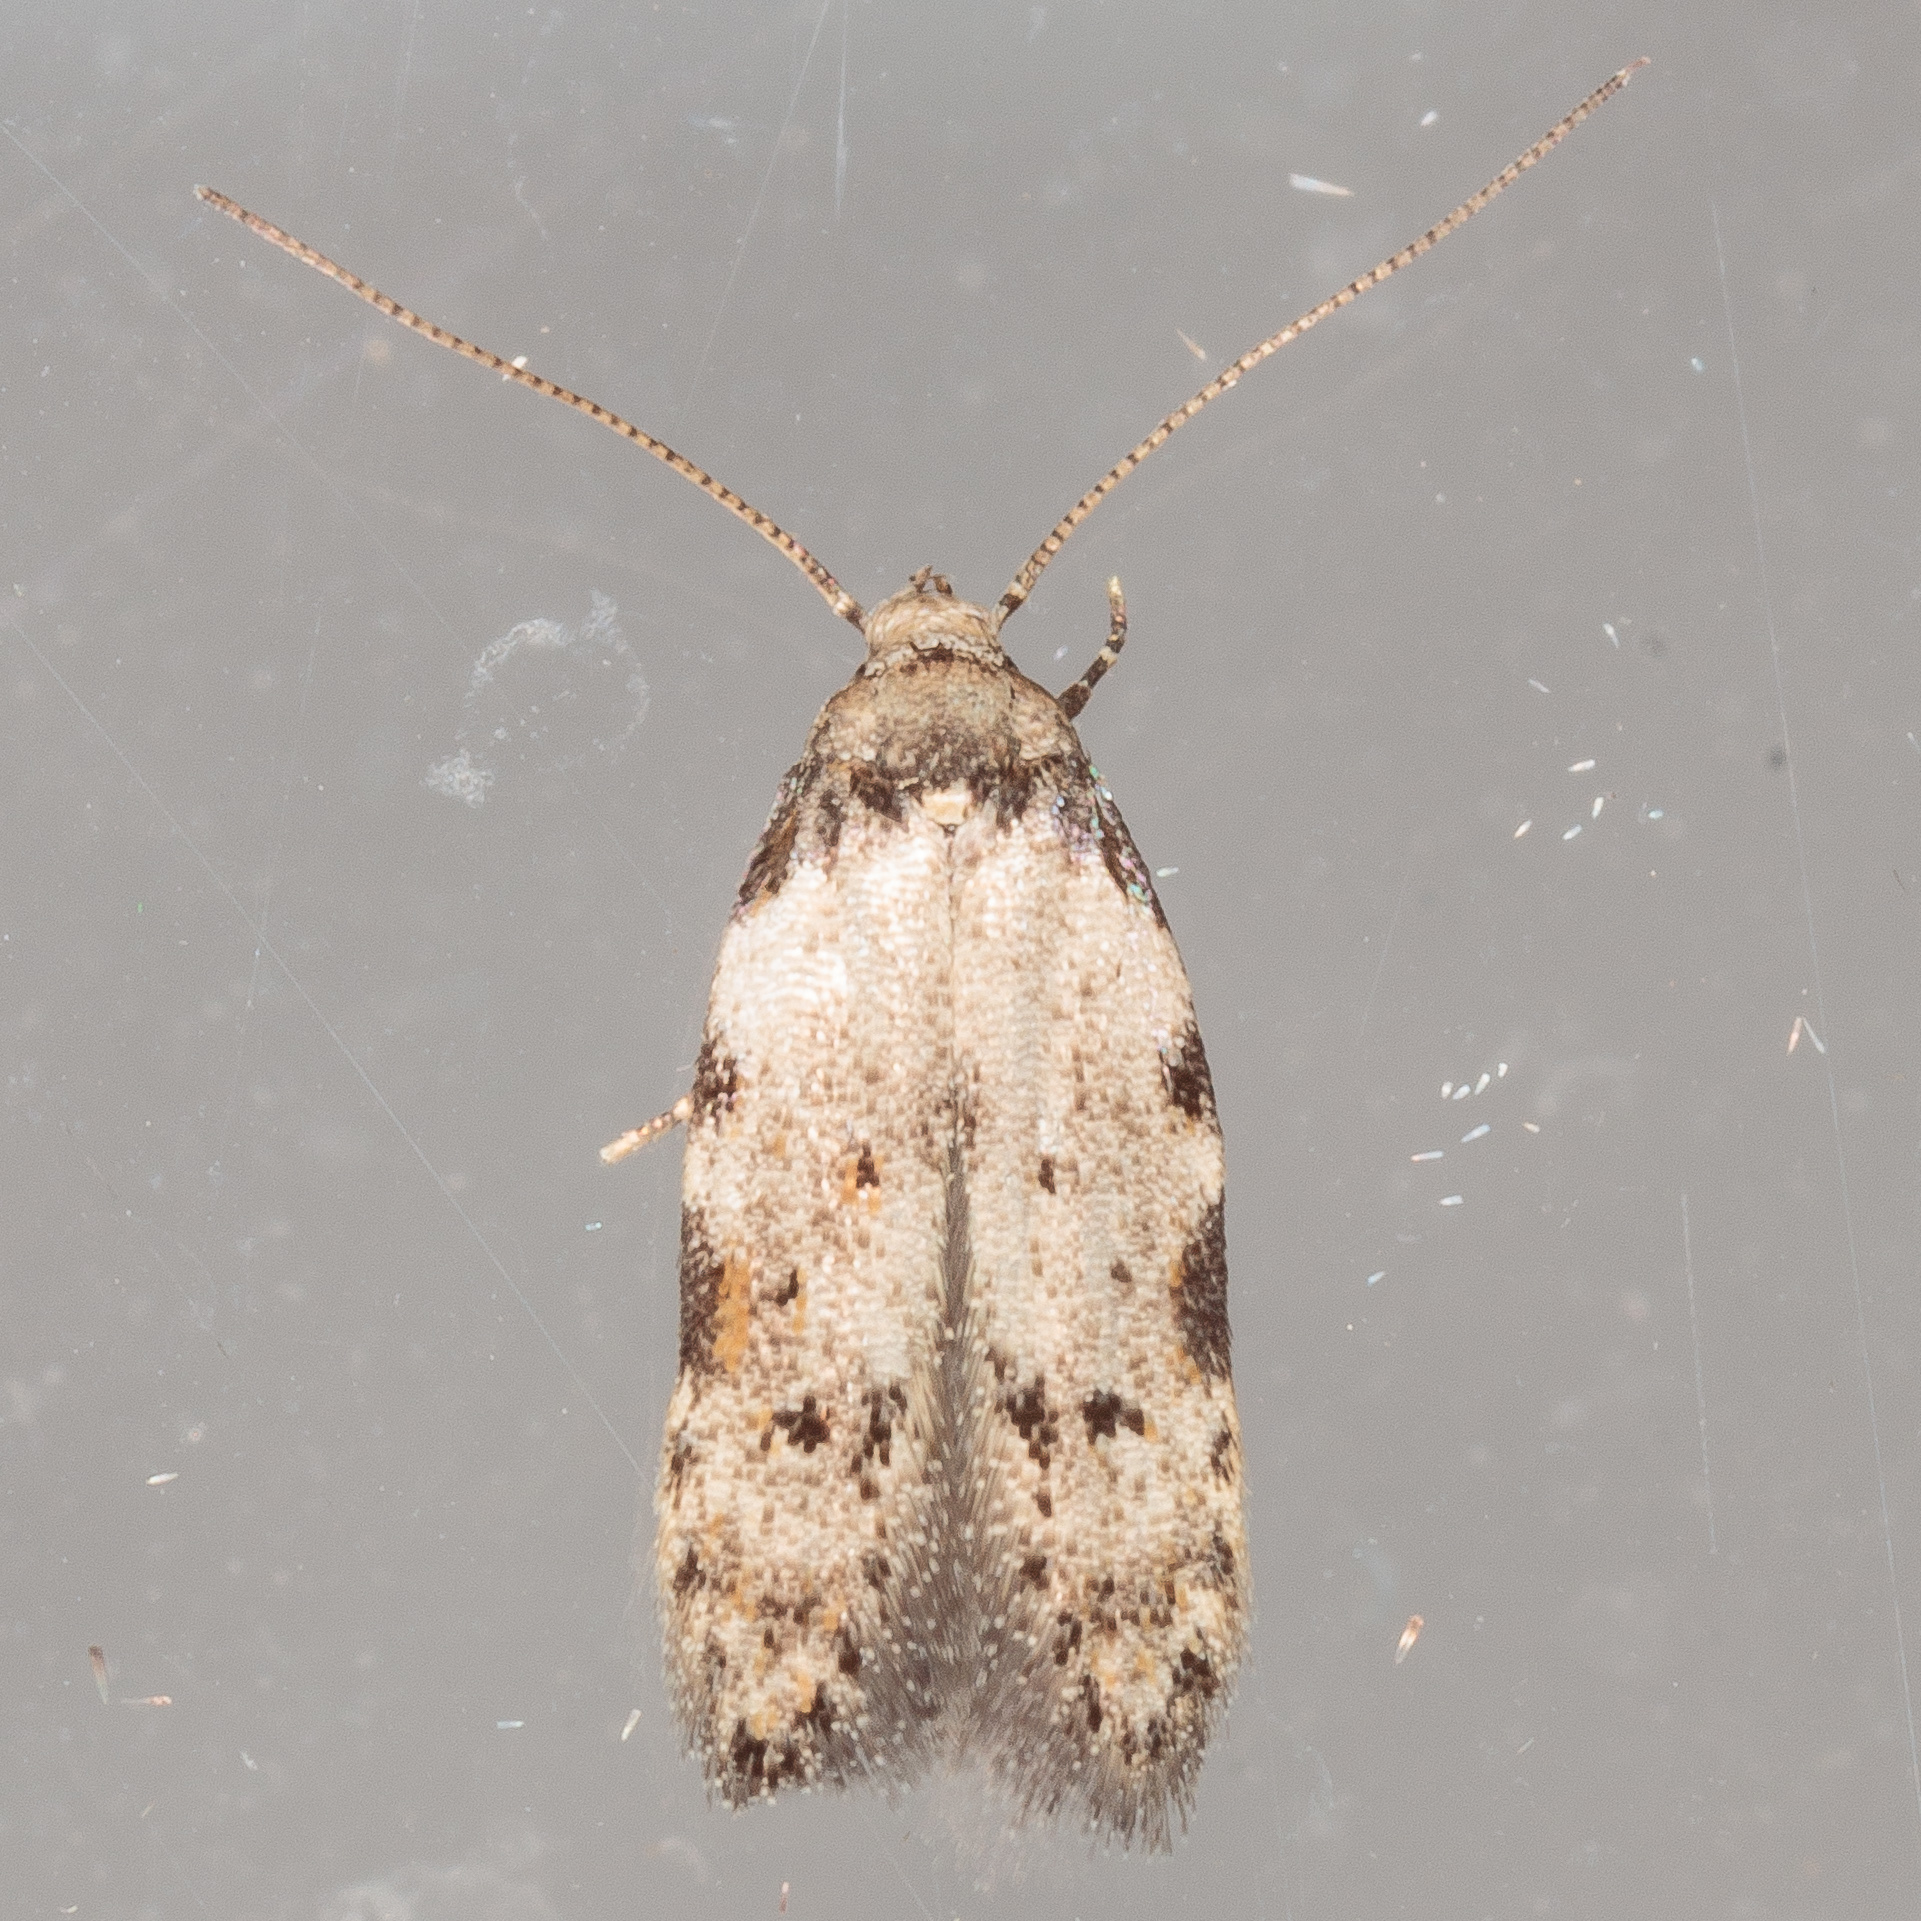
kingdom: Animalia
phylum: Arthropoda
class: Insecta
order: Lepidoptera
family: Autostichidae
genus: Taygete
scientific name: Taygete attributella
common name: Triangle-marked twirler moth
